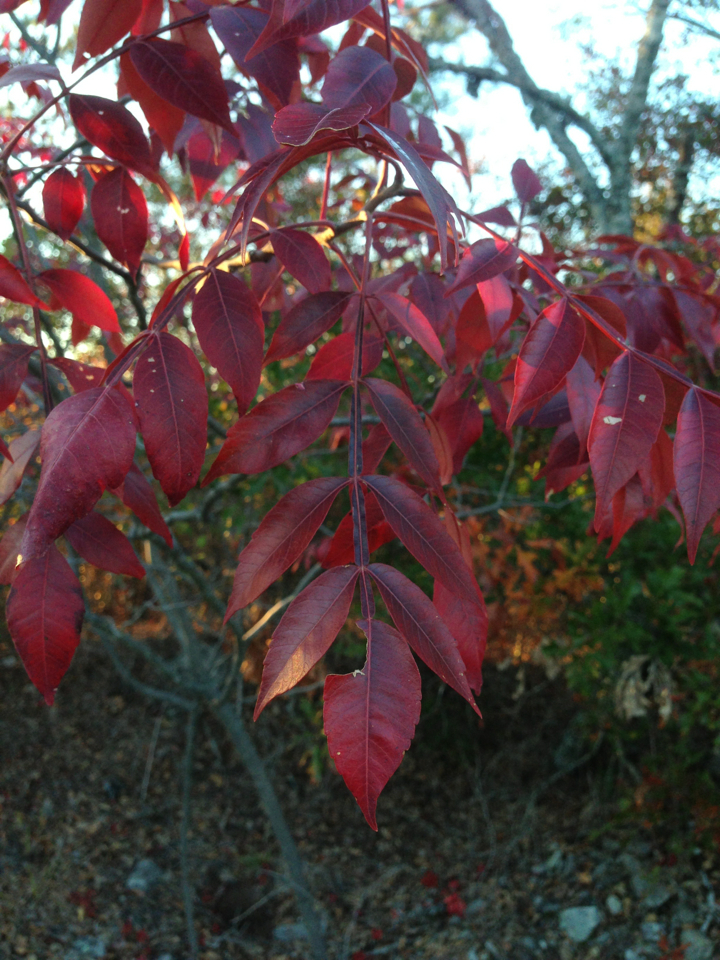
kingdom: Plantae
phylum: Tracheophyta
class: Magnoliopsida
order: Sapindales
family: Anacardiaceae
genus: Rhus
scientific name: Rhus copallina
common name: Shining sumac
